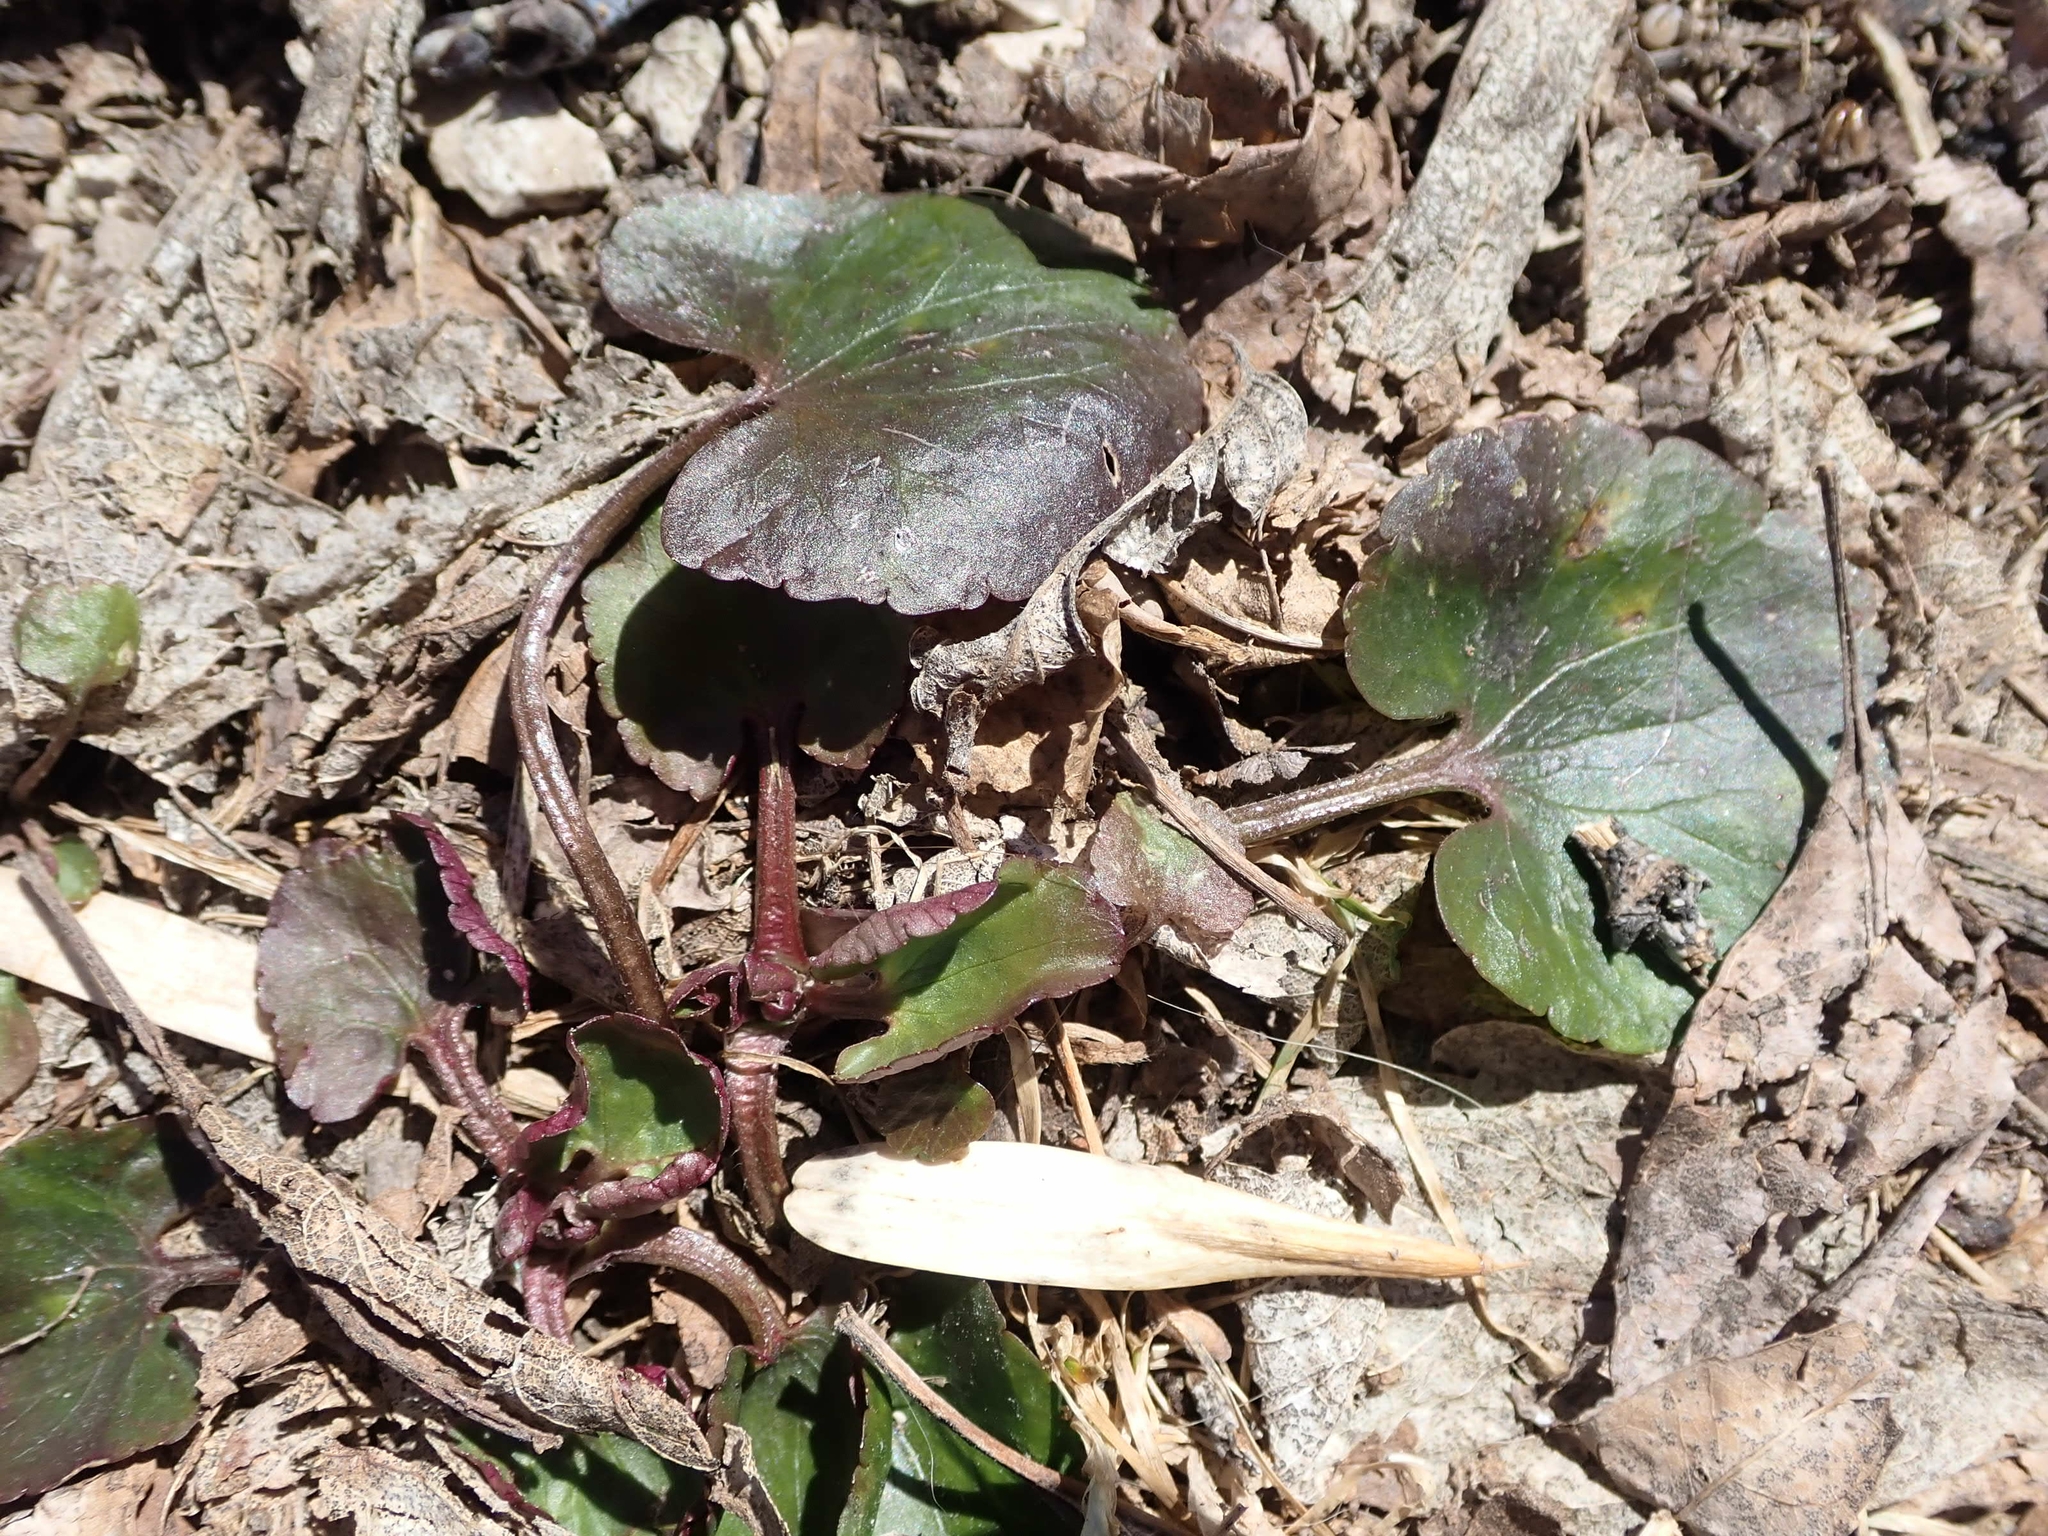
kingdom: Plantae
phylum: Tracheophyta
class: Magnoliopsida
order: Ranunculales
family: Ranunculaceae
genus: Ranunculus
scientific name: Ranunculus abortivus
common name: Early wood buttercup
